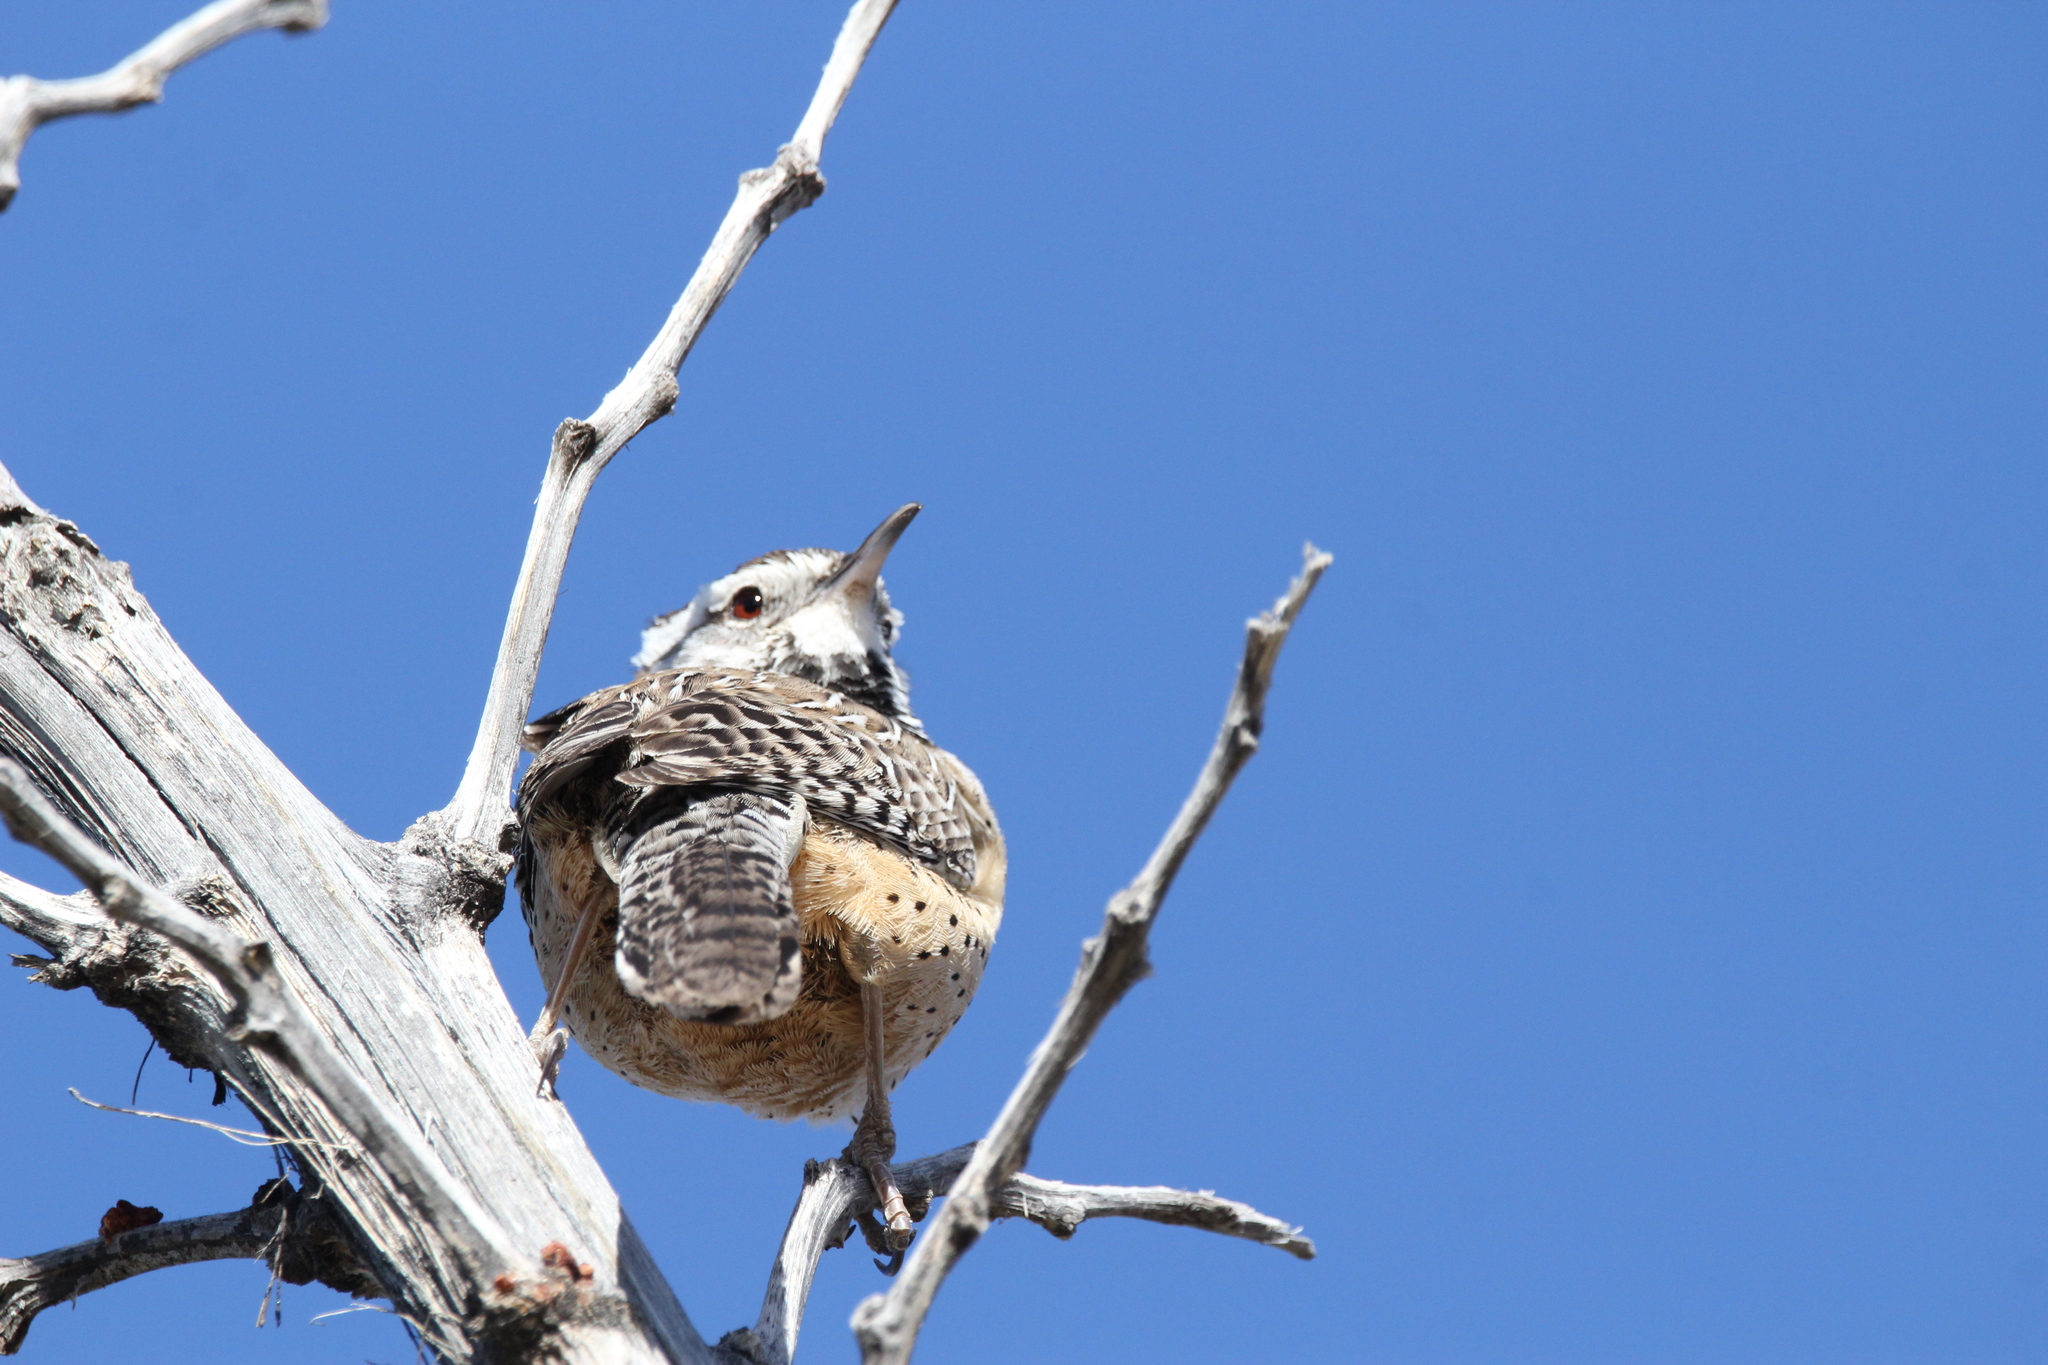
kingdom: Animalia
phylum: Chordata
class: Aves
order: Passeriformes
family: Troglodytidae
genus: Campylorhynchus
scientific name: Campylorhynchus brunneicapillus
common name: Cactus wren
